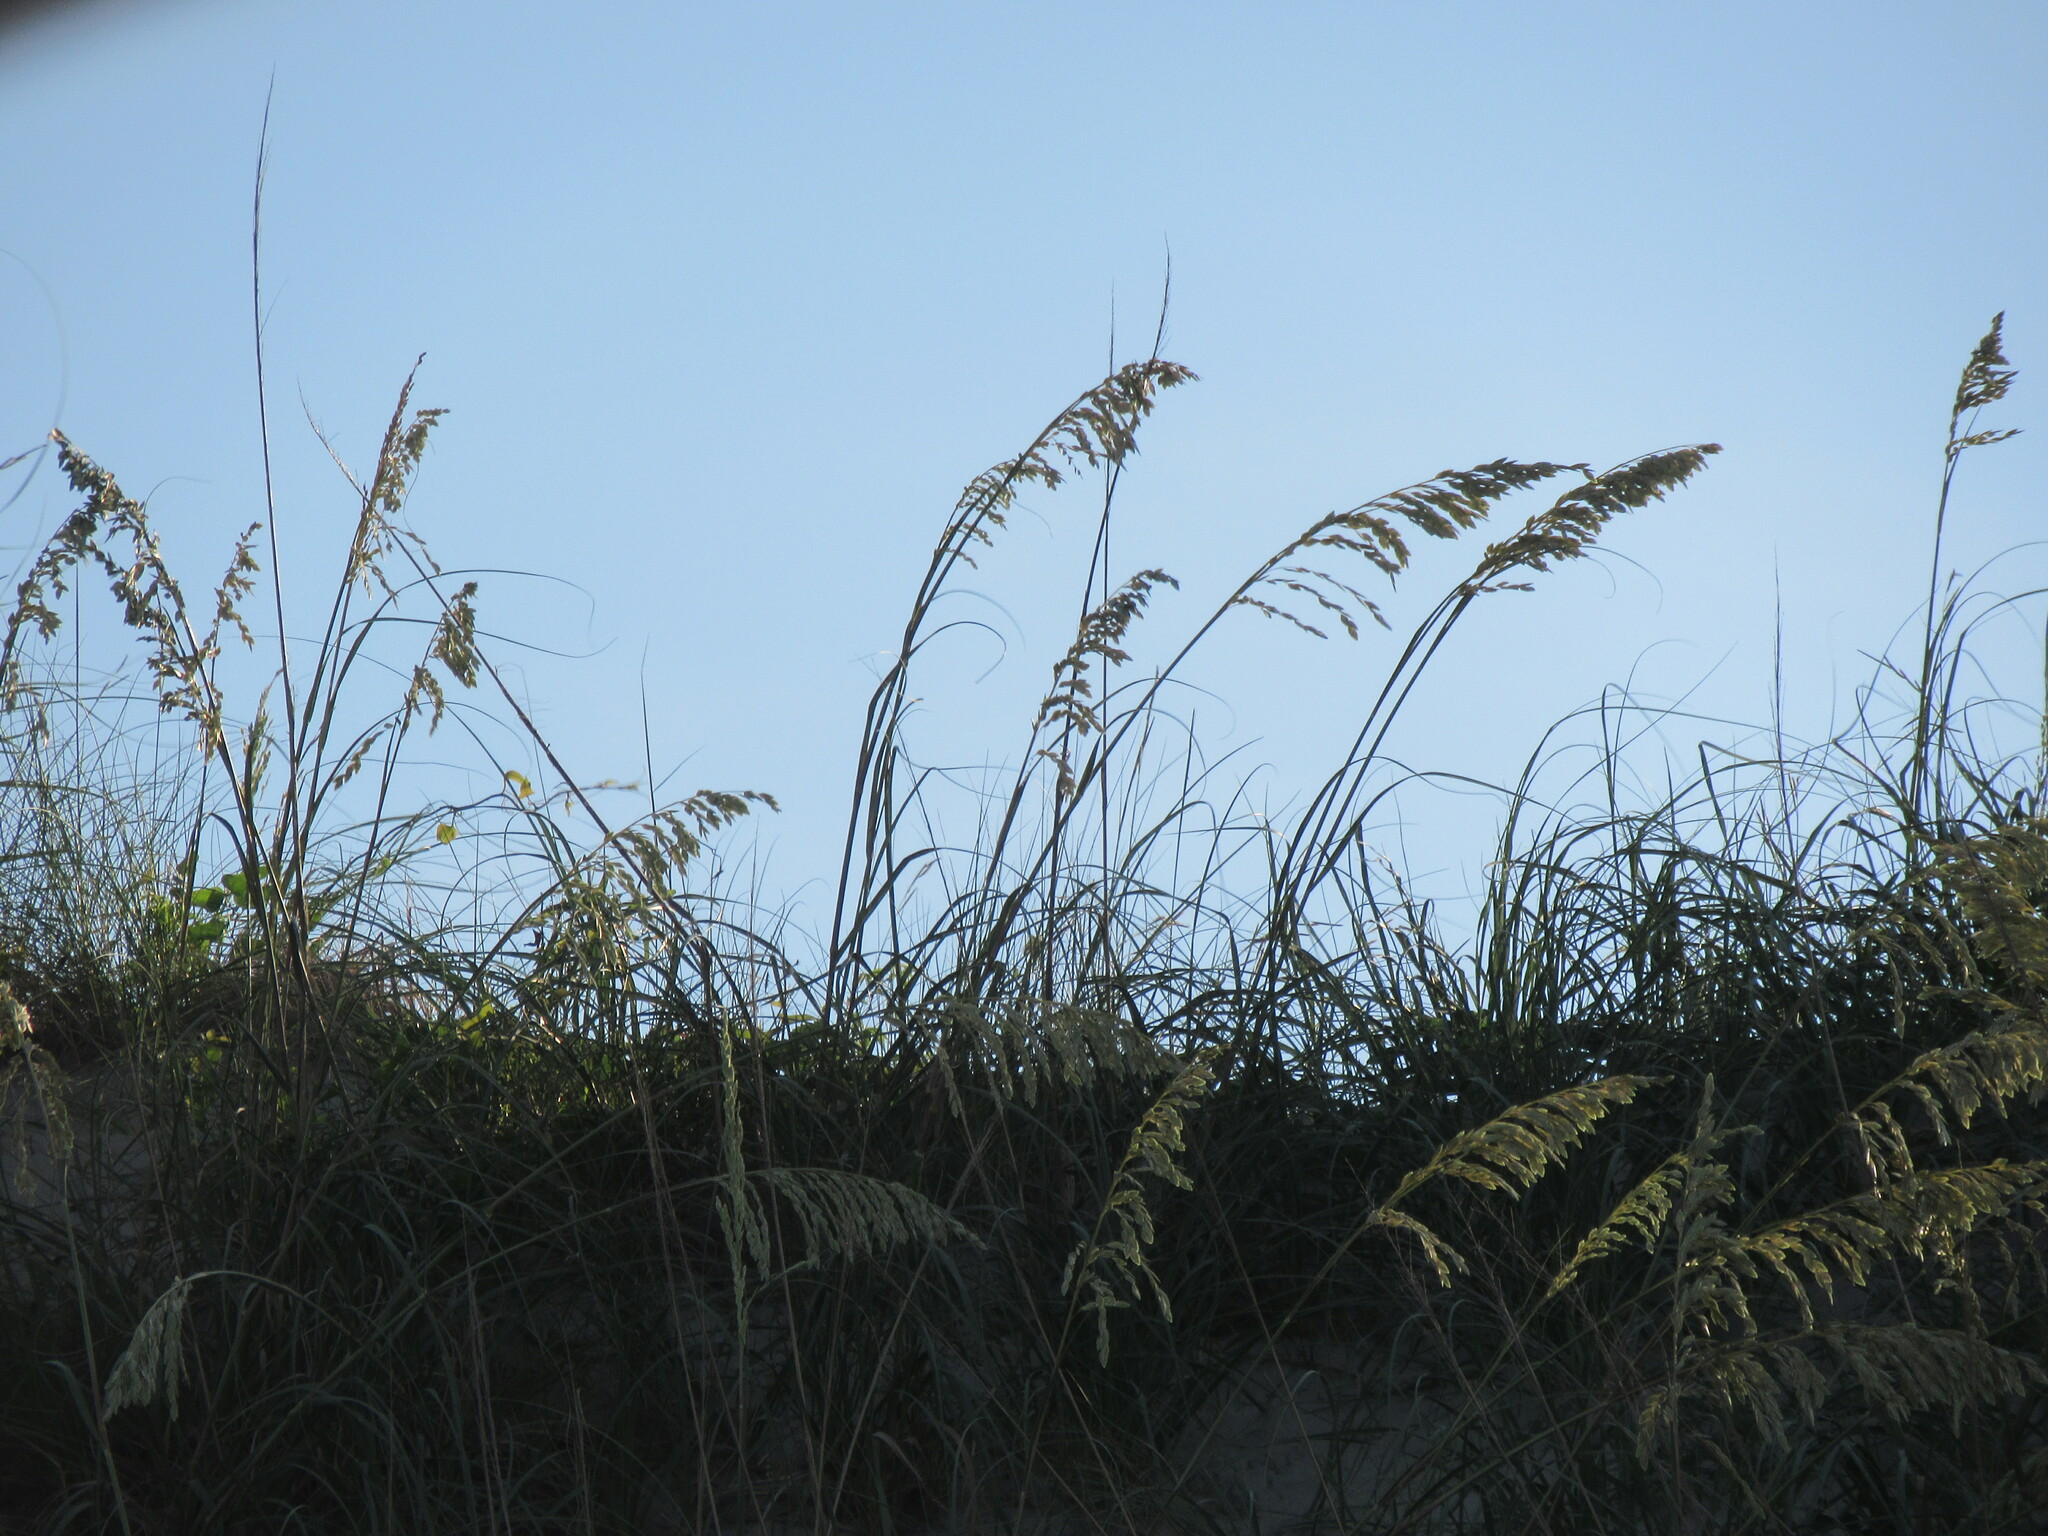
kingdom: Plantae
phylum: Tracheophyta
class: Liliopsida
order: Poales
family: Poaceae
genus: Uniola
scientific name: Uniola paniculata
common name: Seaside-oats
